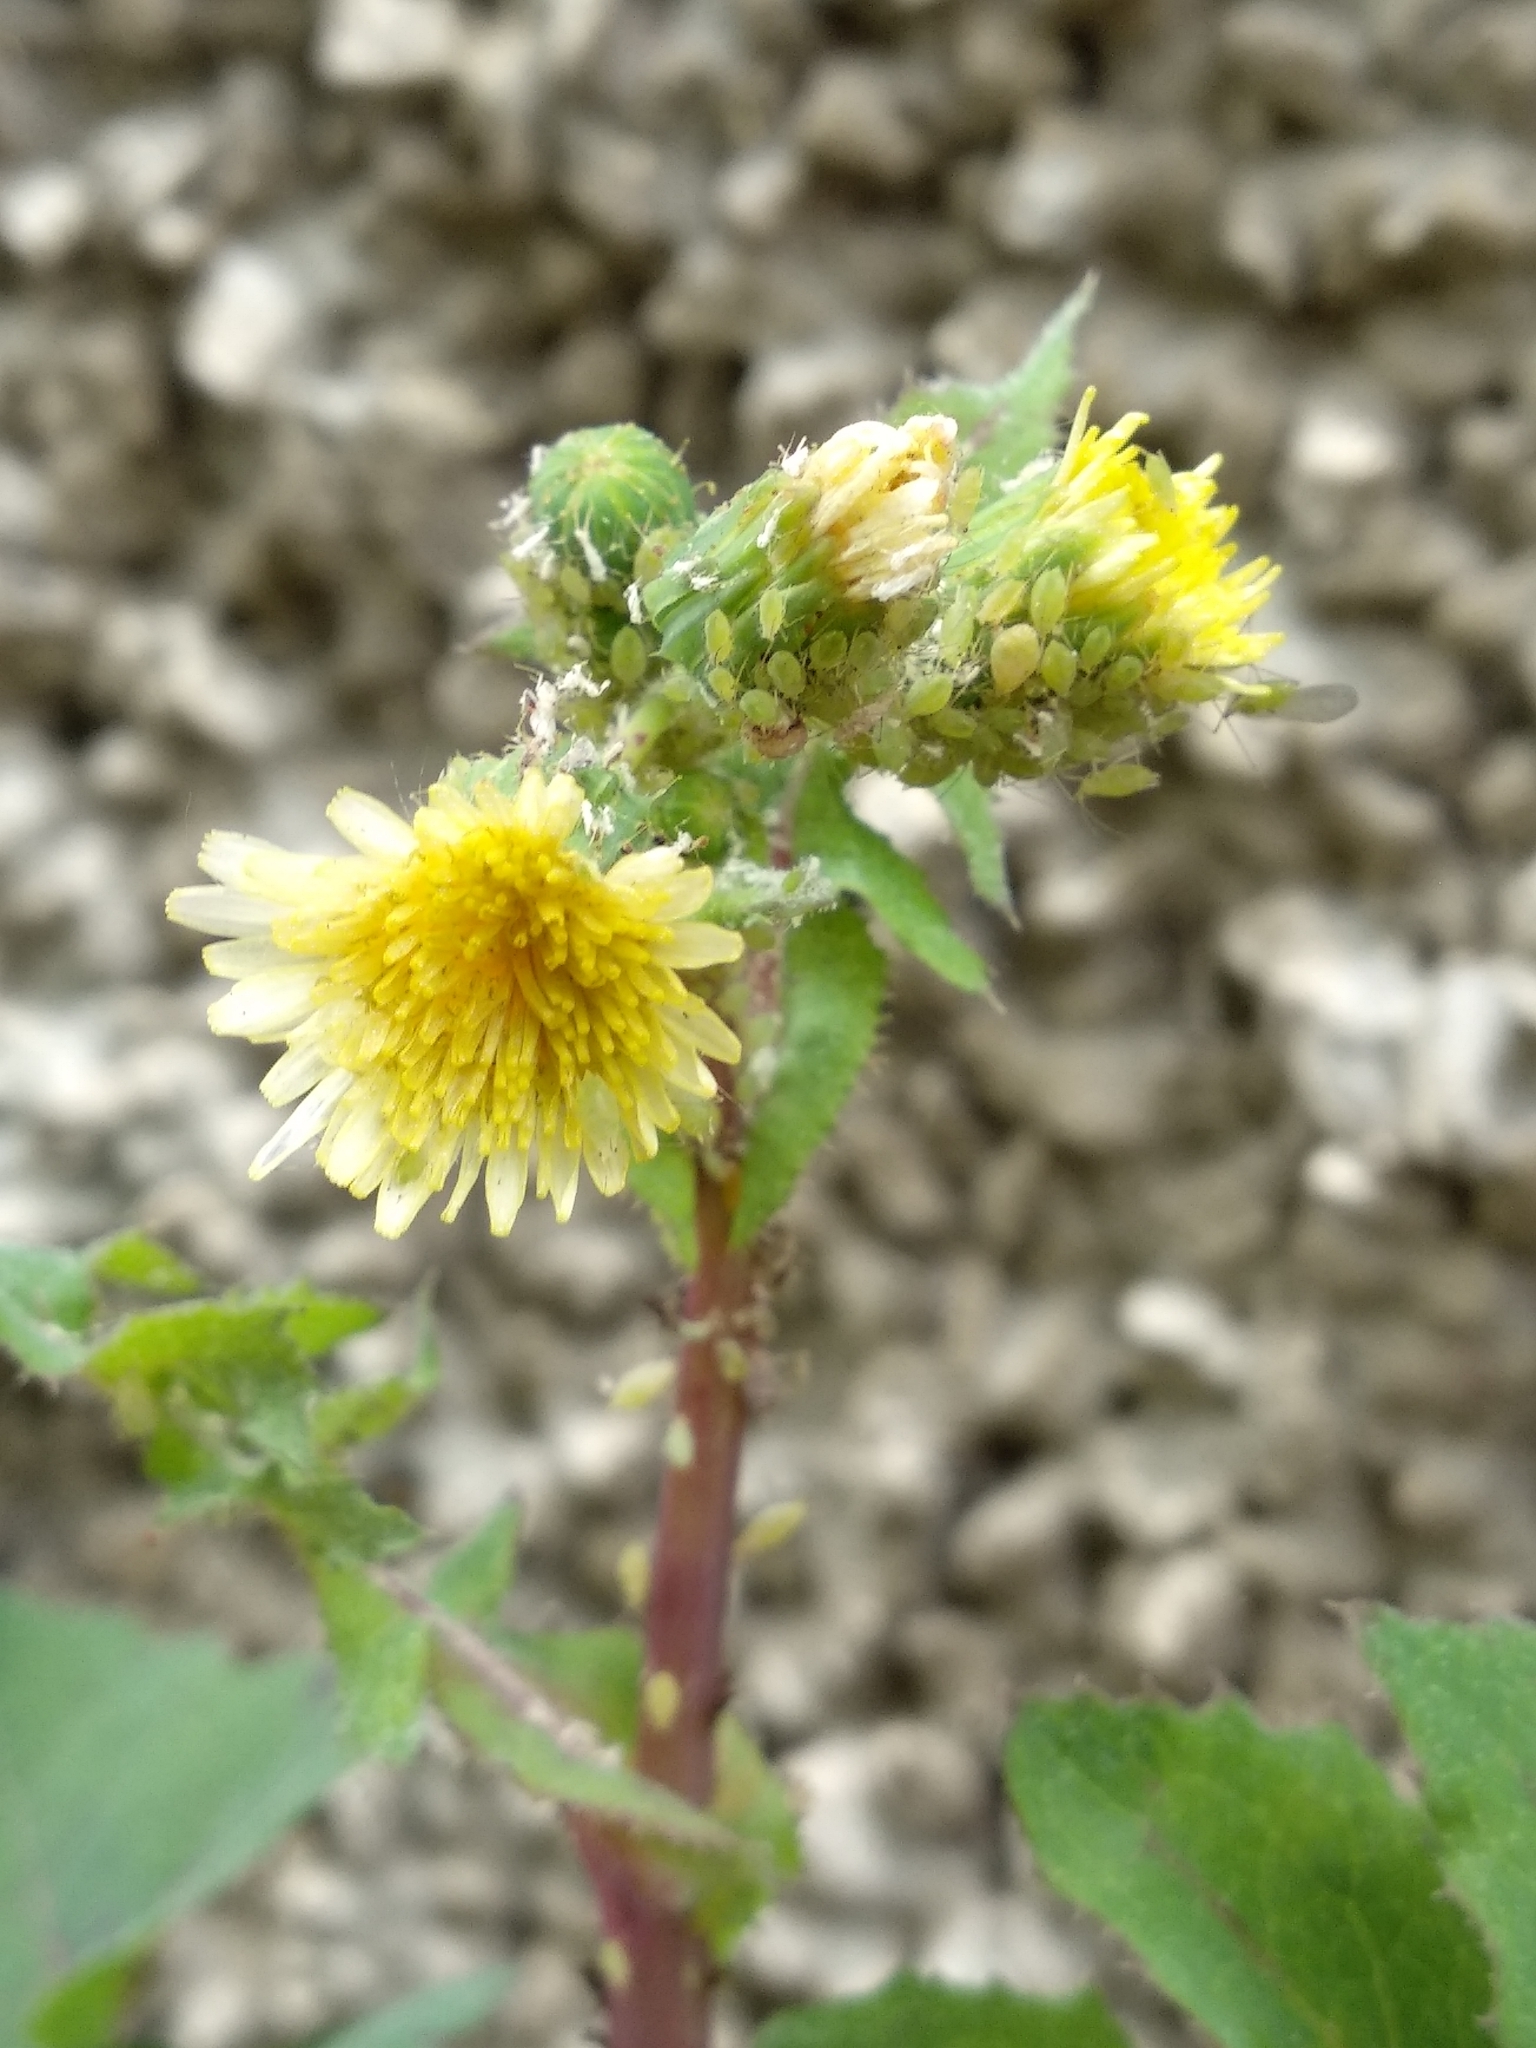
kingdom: Plantae
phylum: Tracheophyta
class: Magnoliopsida
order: Asterales
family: Asteraceae
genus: Sonchus
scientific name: Sonchus oleraceus
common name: Common sowthistle
